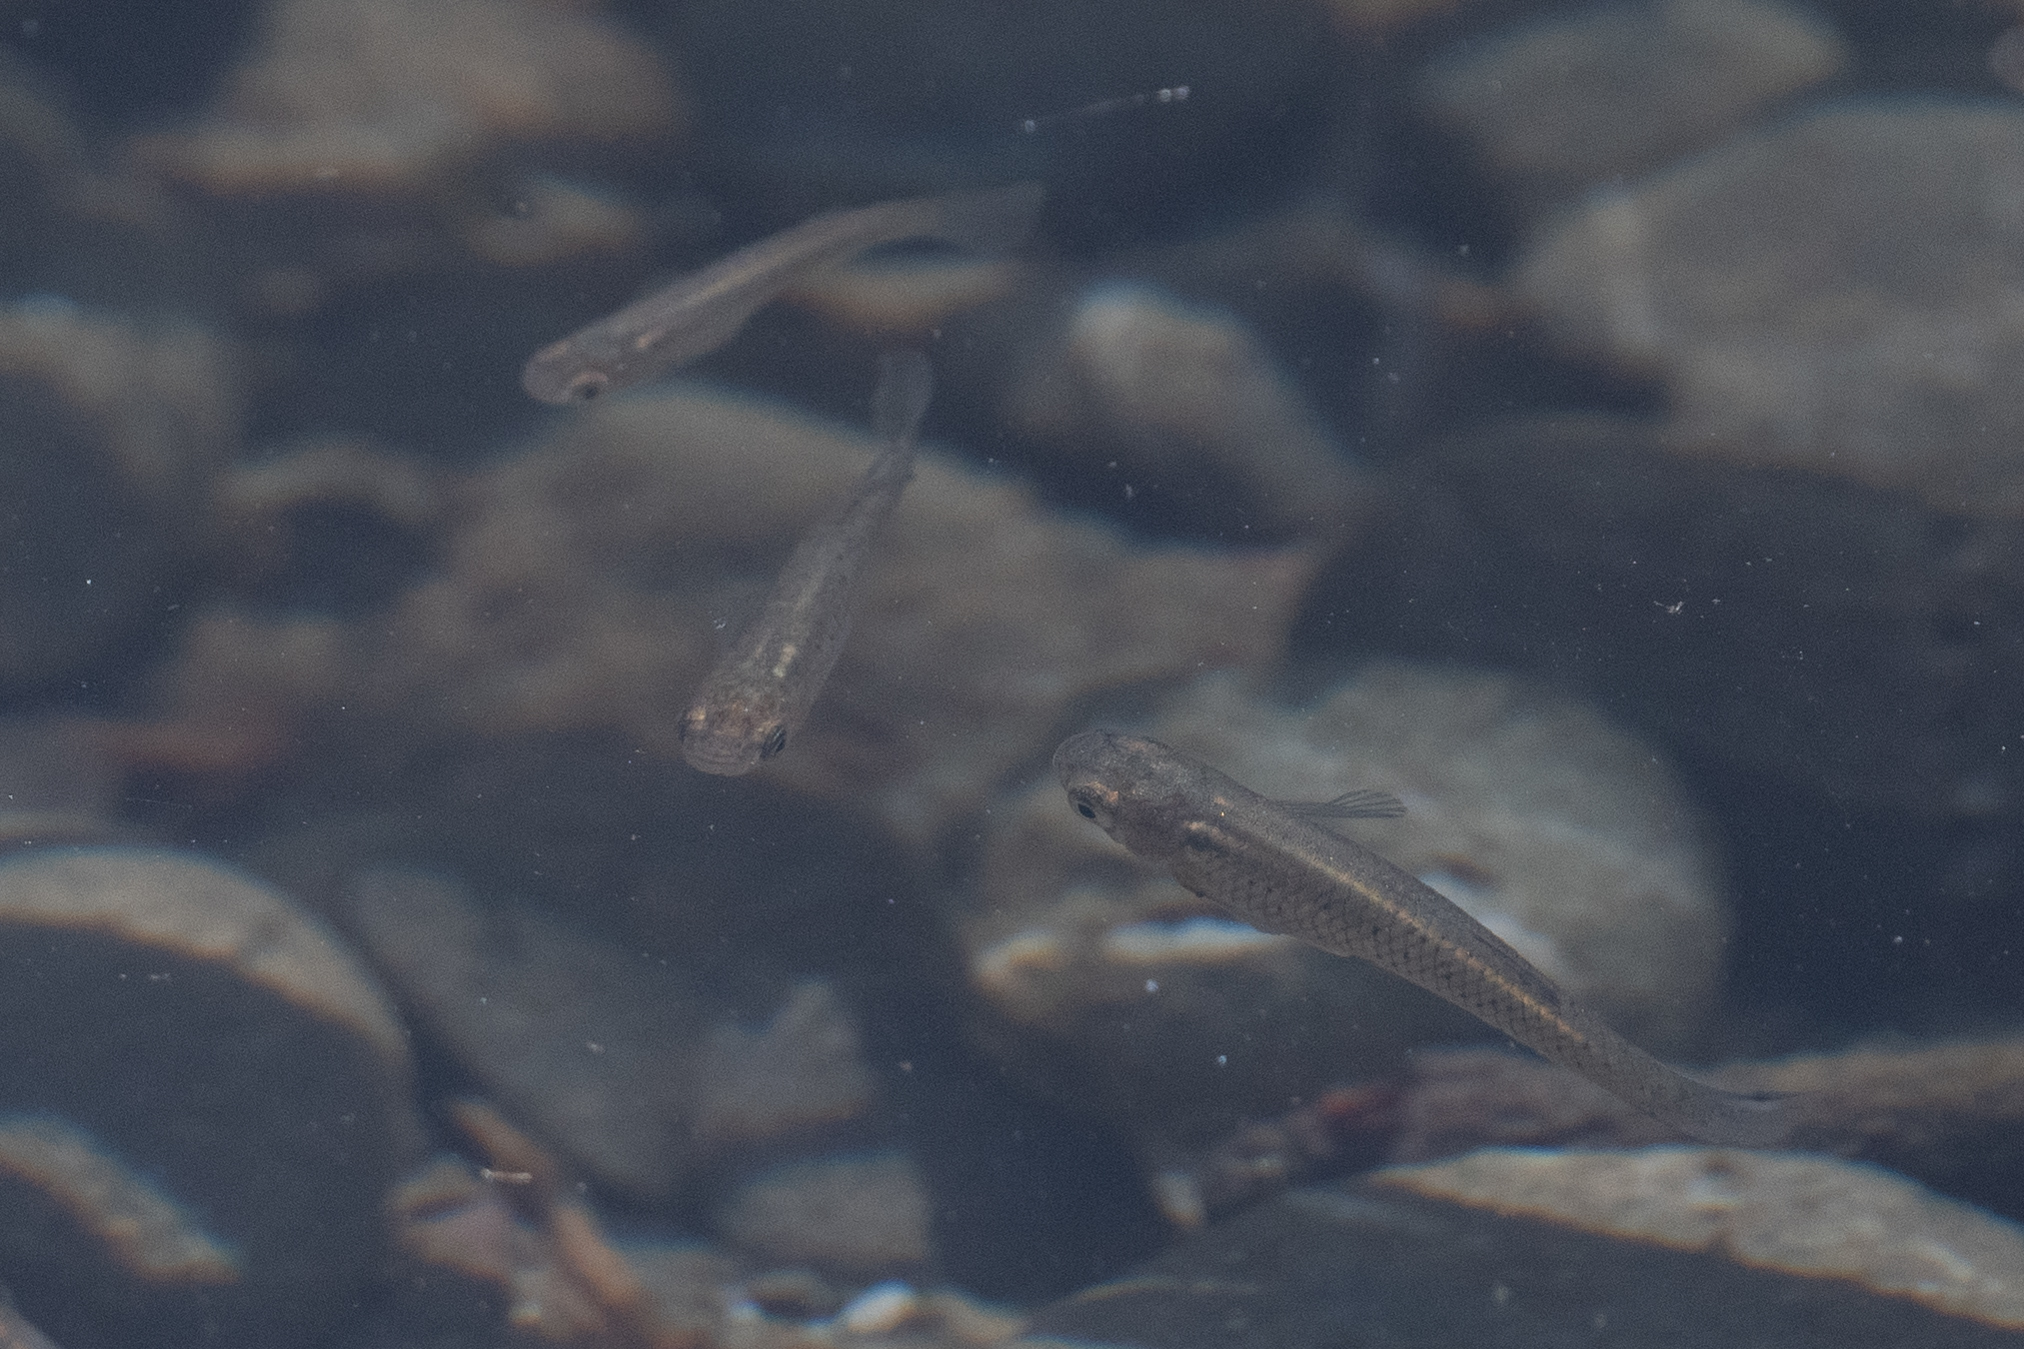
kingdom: Animalia
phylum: Chordata
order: Cyprinodontiformes
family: Poeciliidae
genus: Gambusia
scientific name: Gambusia affinis
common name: Mosquitofish
